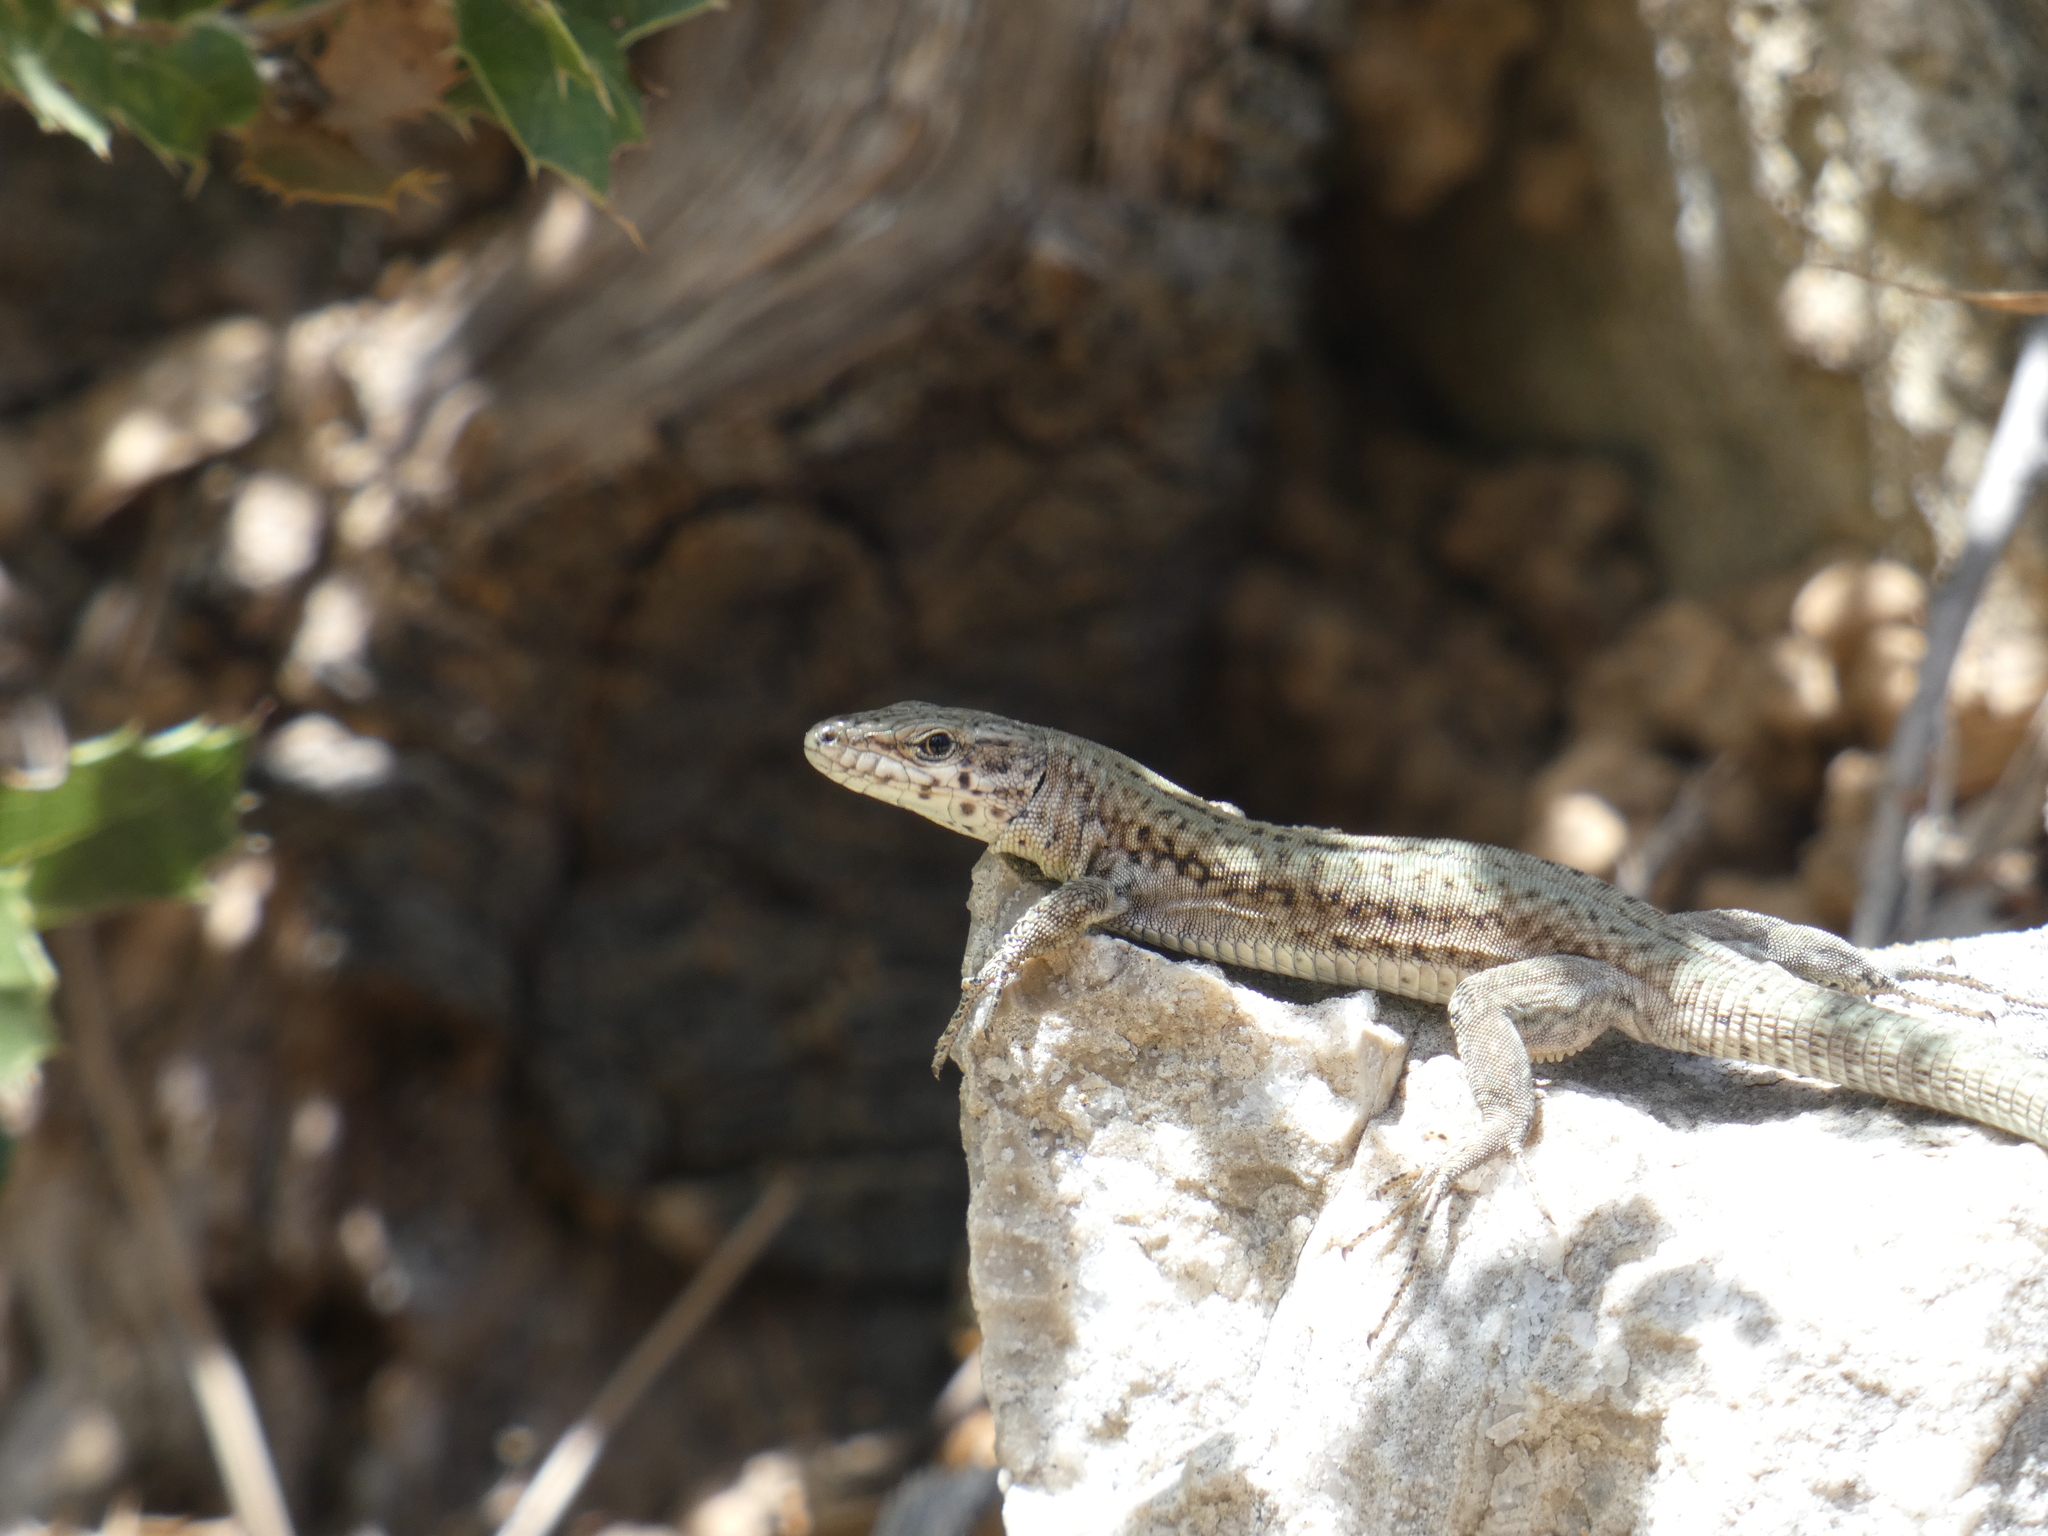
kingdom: Animalia
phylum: Chordata
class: Squamata
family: Lacertidae
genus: Podarcis
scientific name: Podarcis liolepis
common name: Catalonian wall lizard
